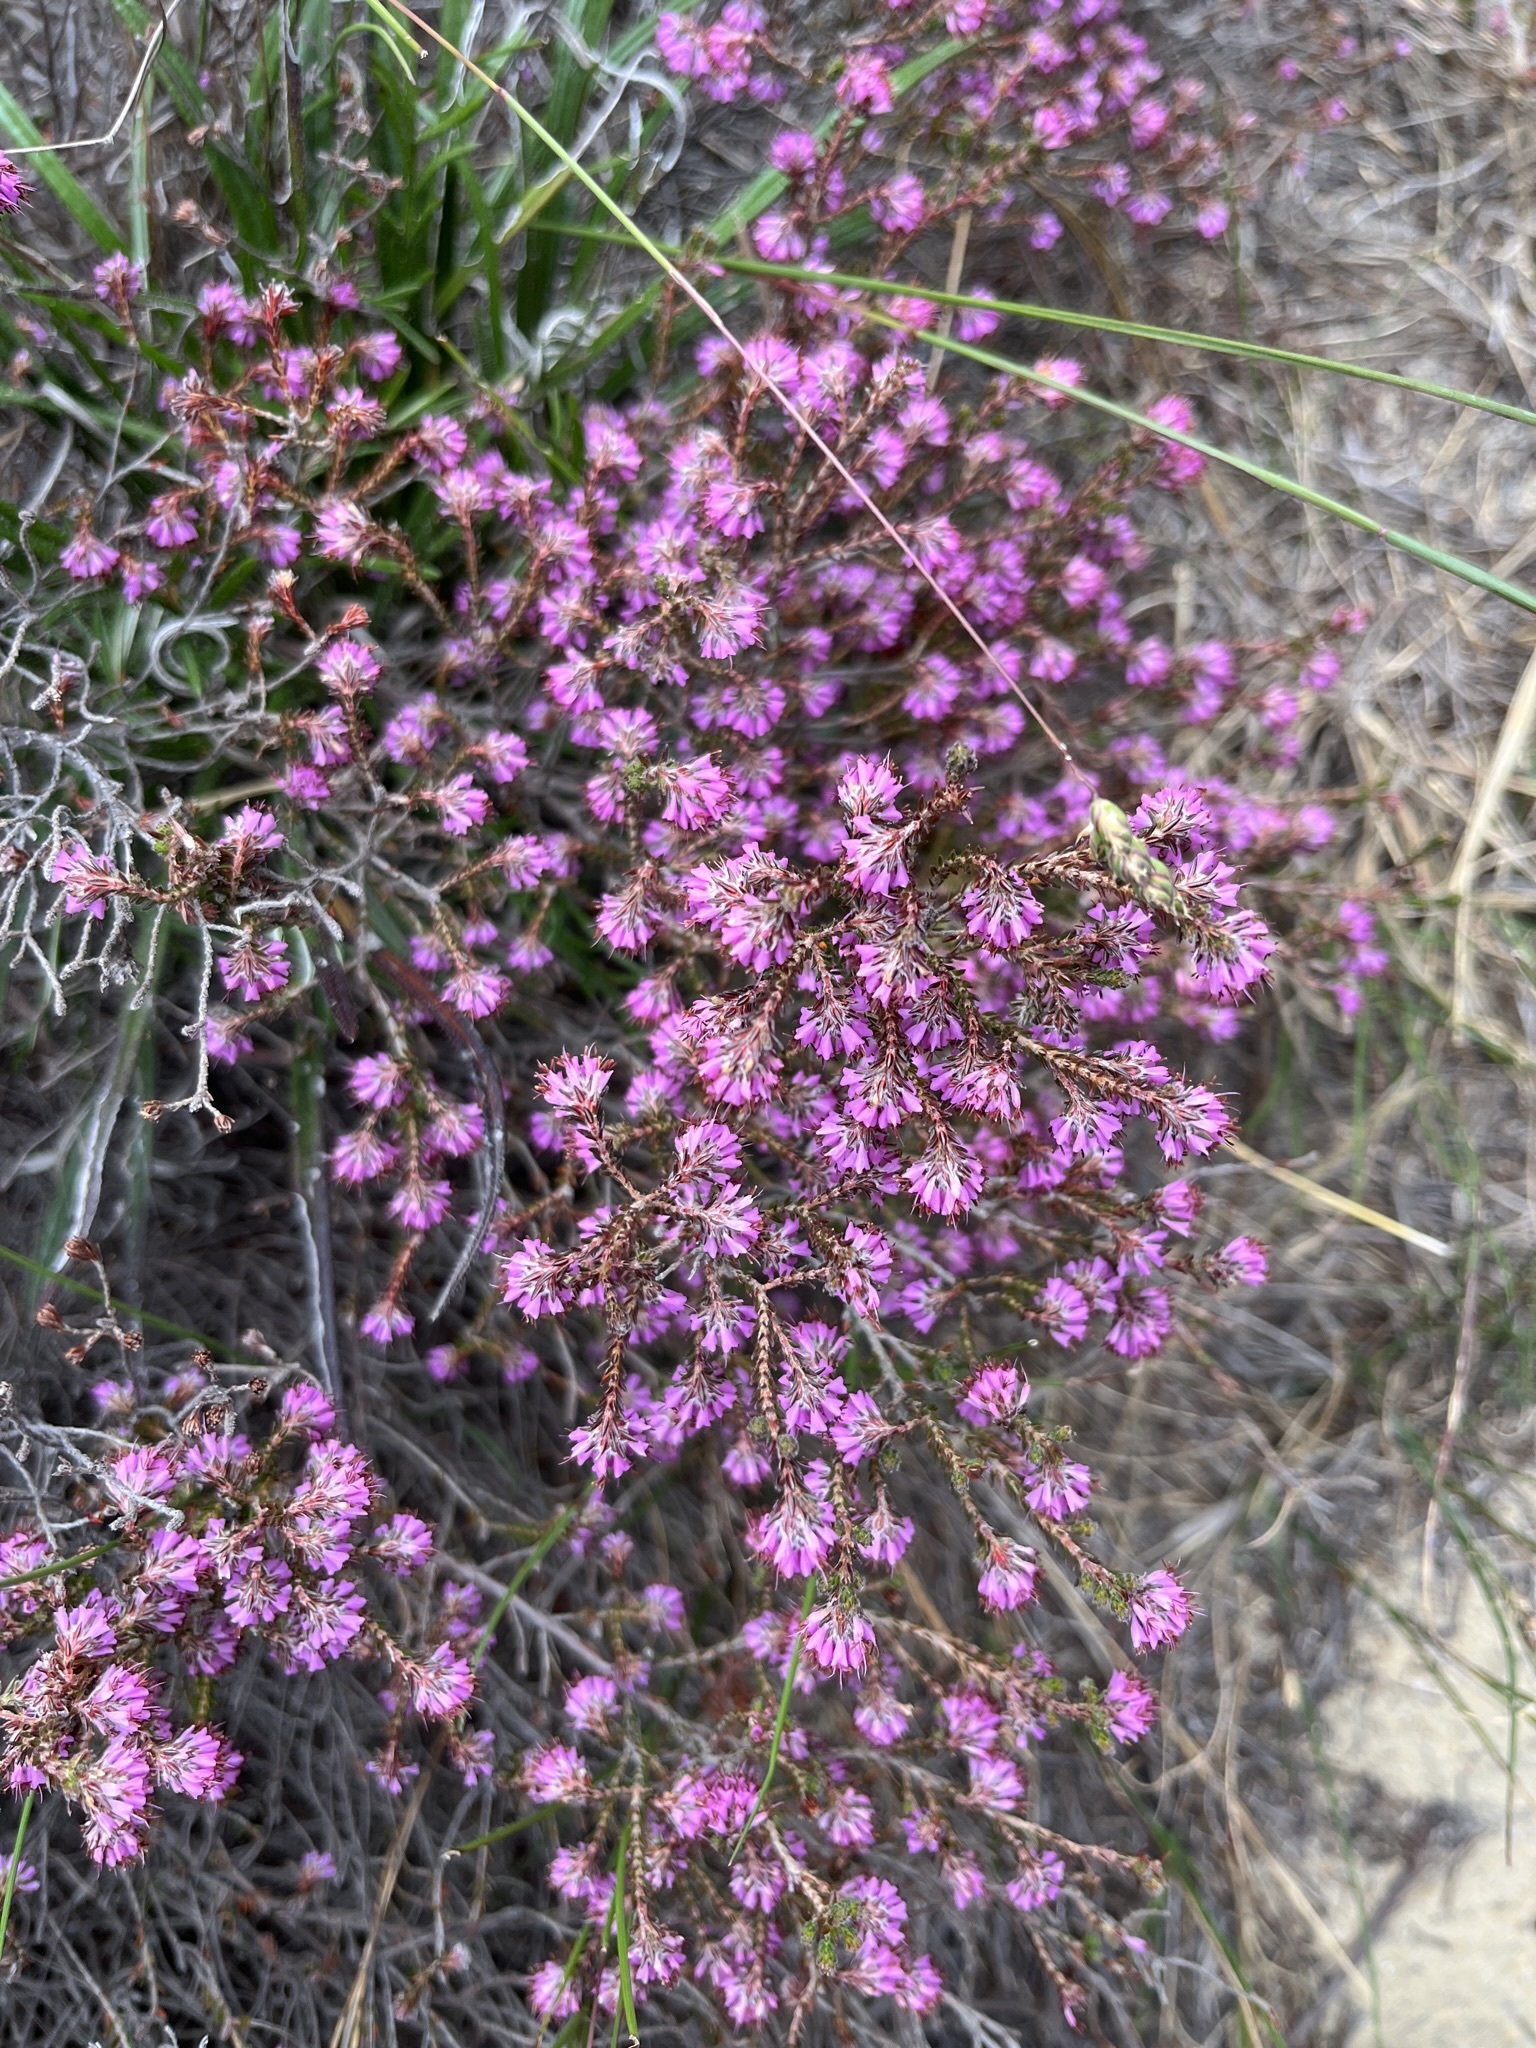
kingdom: Plantae
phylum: Tracheophyta
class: Magnoliopsida
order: Ericales
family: Ericaceae
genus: Erica
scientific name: Erica globiceps
